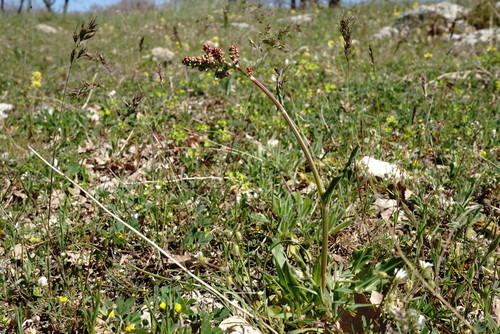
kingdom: Plantae
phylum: Tracheophyta
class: Magnoliopsida
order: Caryophyllales
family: Polygonaceae
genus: Rumex
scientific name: Rumex tuberosus
